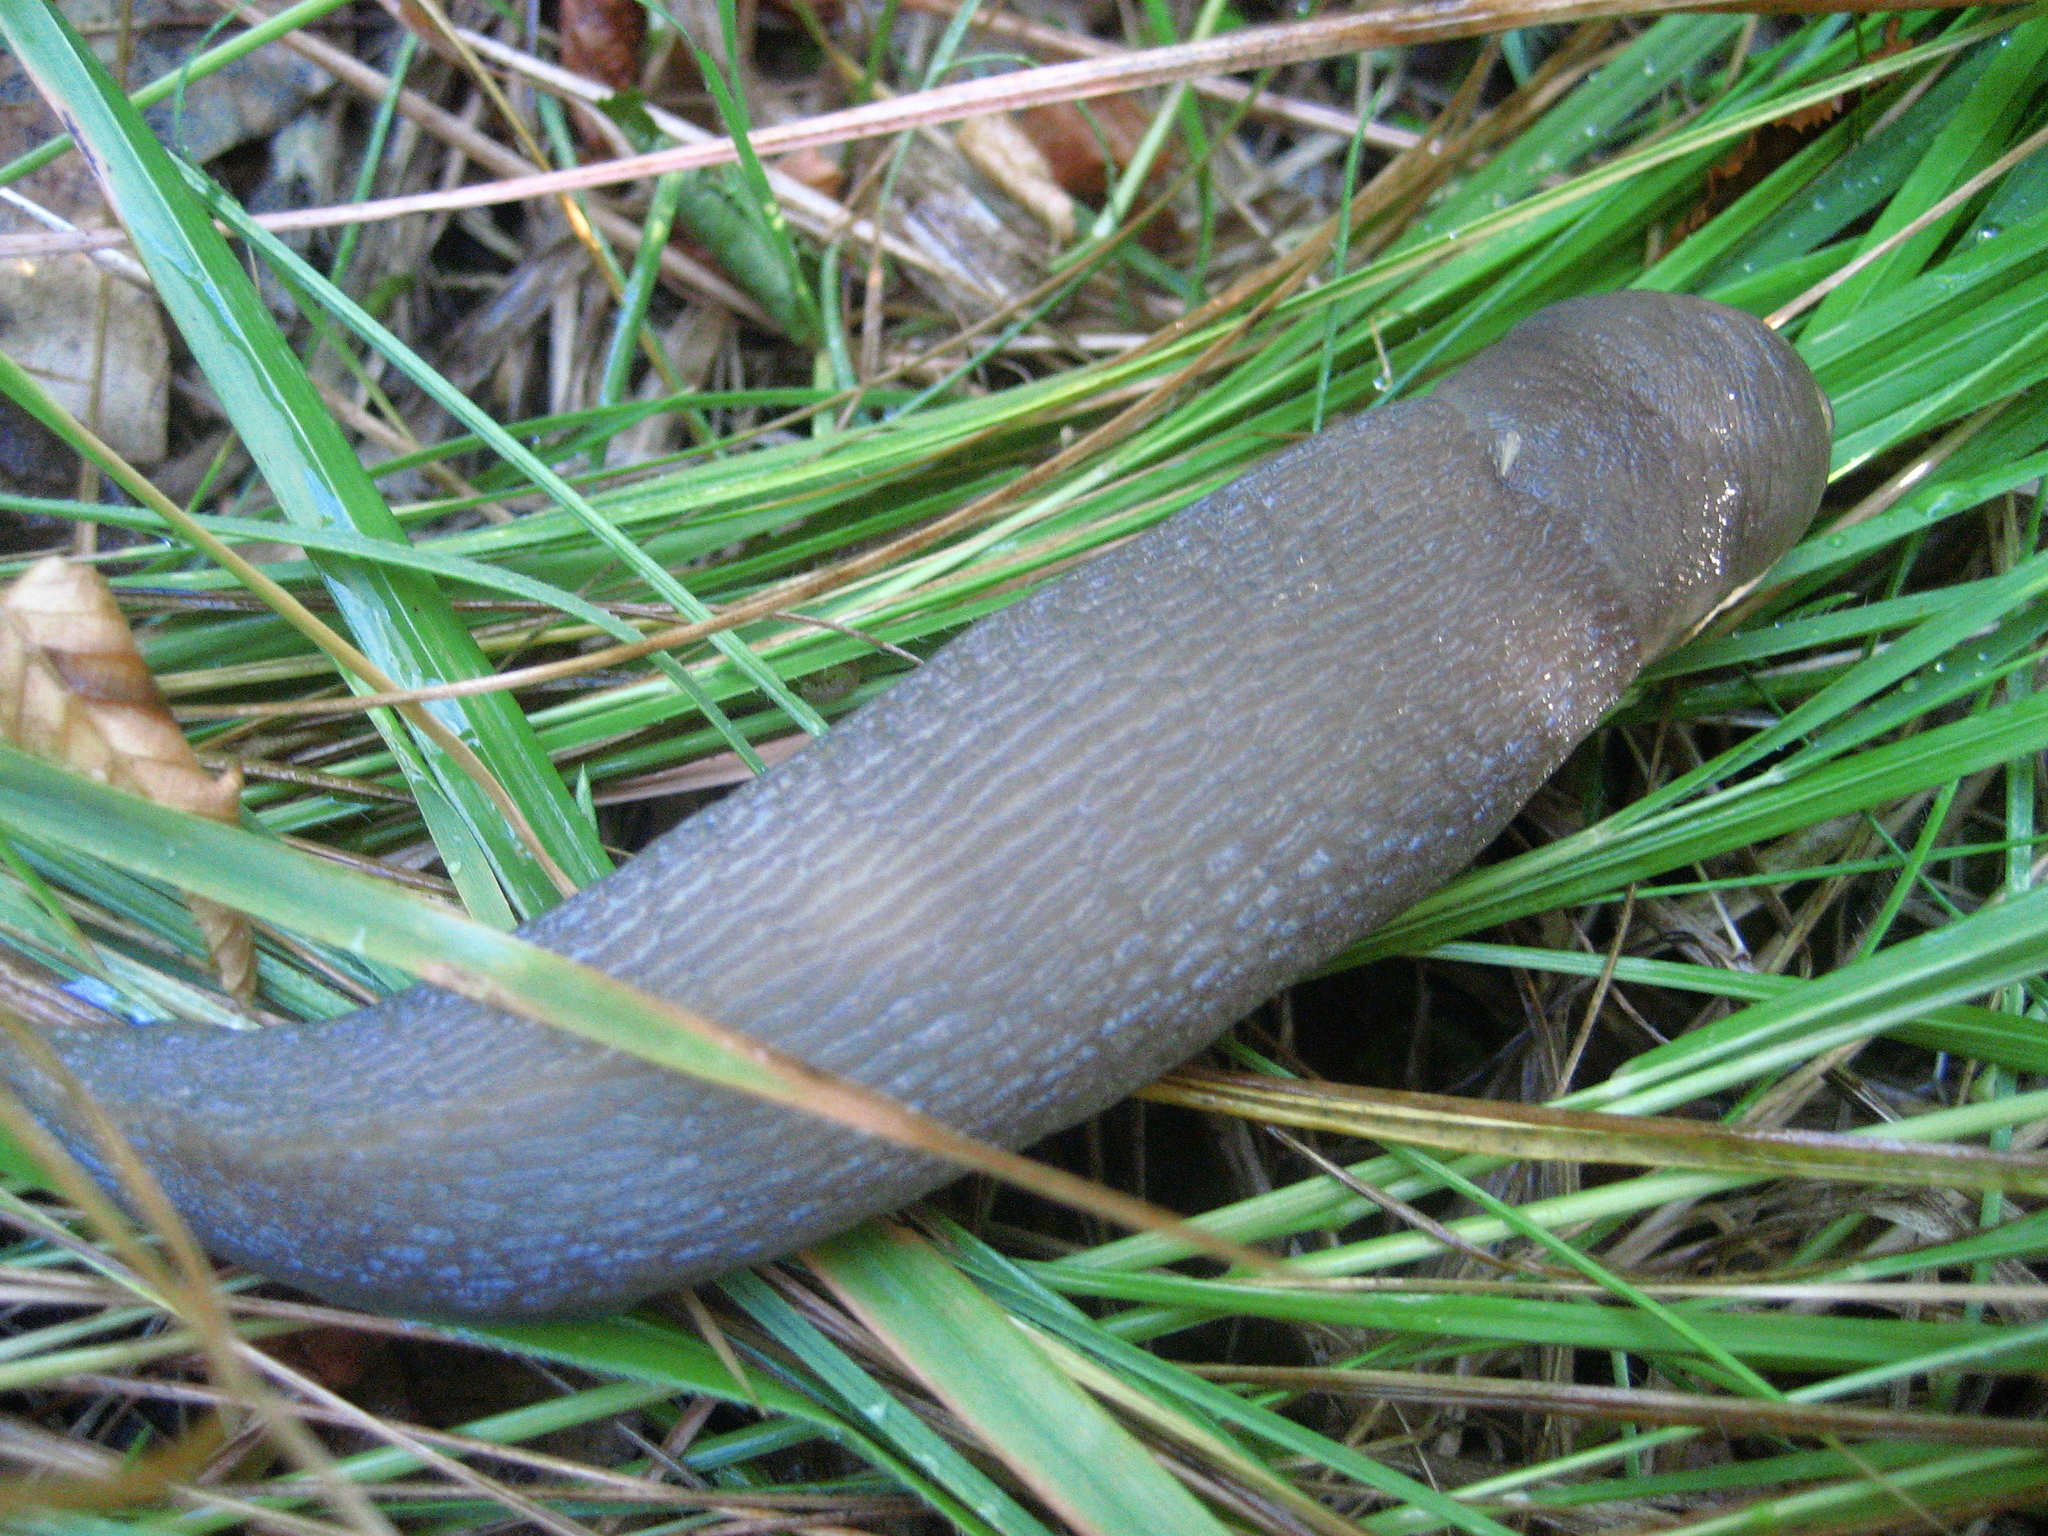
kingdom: Animalia
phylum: Mollusca
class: Gastropoda
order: Stylommatophora
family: Limacidae
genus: Limax
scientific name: Limax cinereoniger
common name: Ash-black slug
